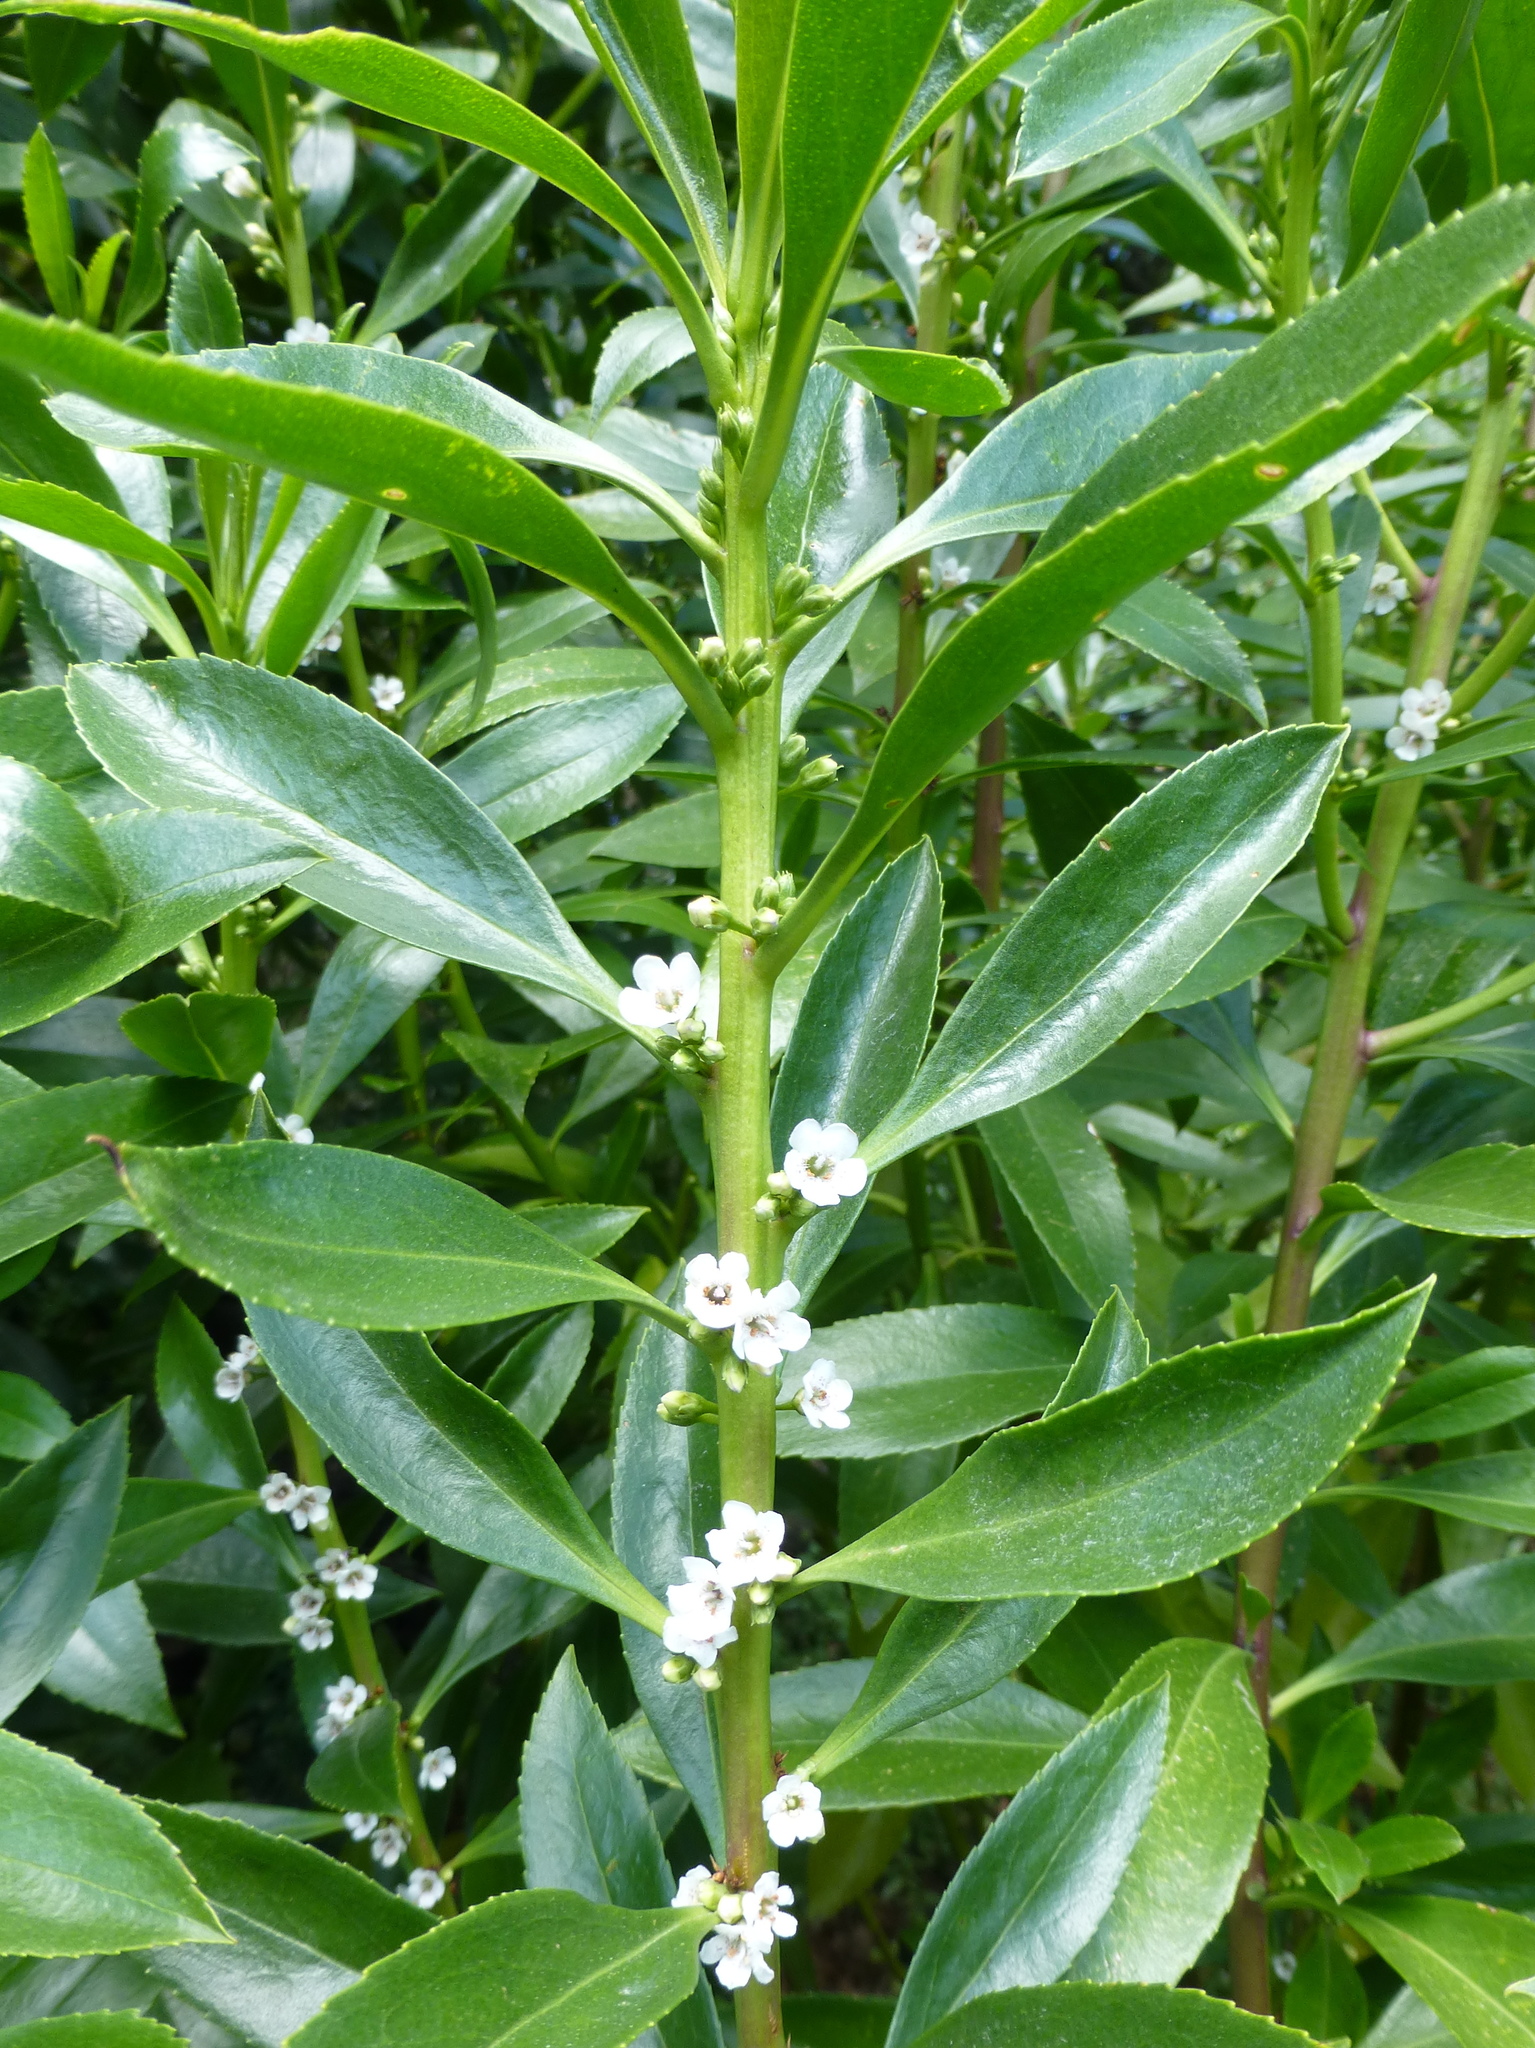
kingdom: Plantae
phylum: Tracheophyta
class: Magnoliopsida
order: Lamiales
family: Scrophulariaceae
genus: Myoporum
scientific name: Myoporum insulare
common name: Common boobialla
